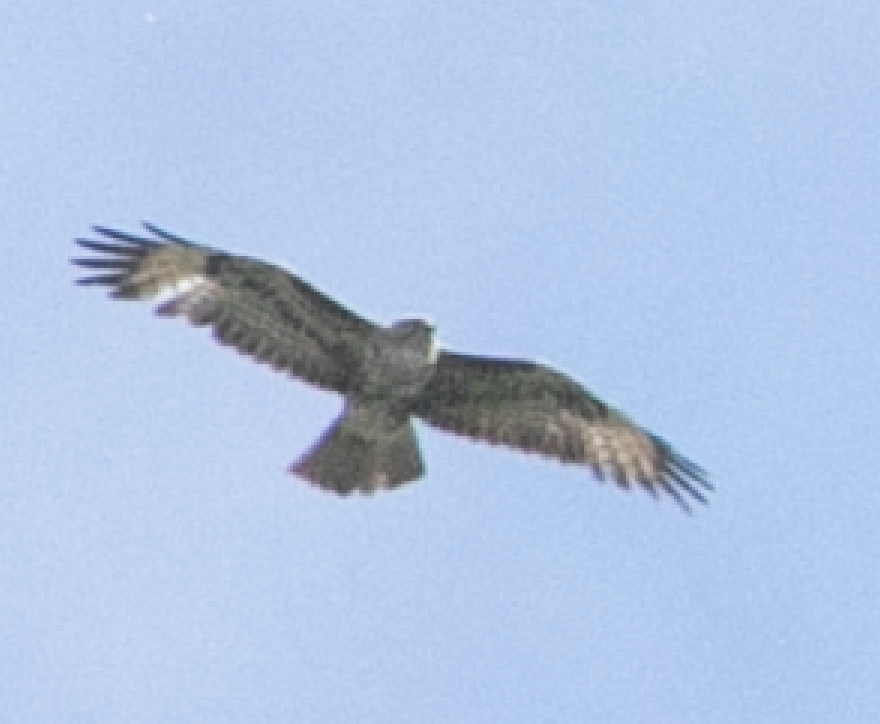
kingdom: Animalia
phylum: Chordata
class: Aves
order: Accipitriformes
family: Accipitridae
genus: Buteo
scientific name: Buteo buteo
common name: Common buzzard
